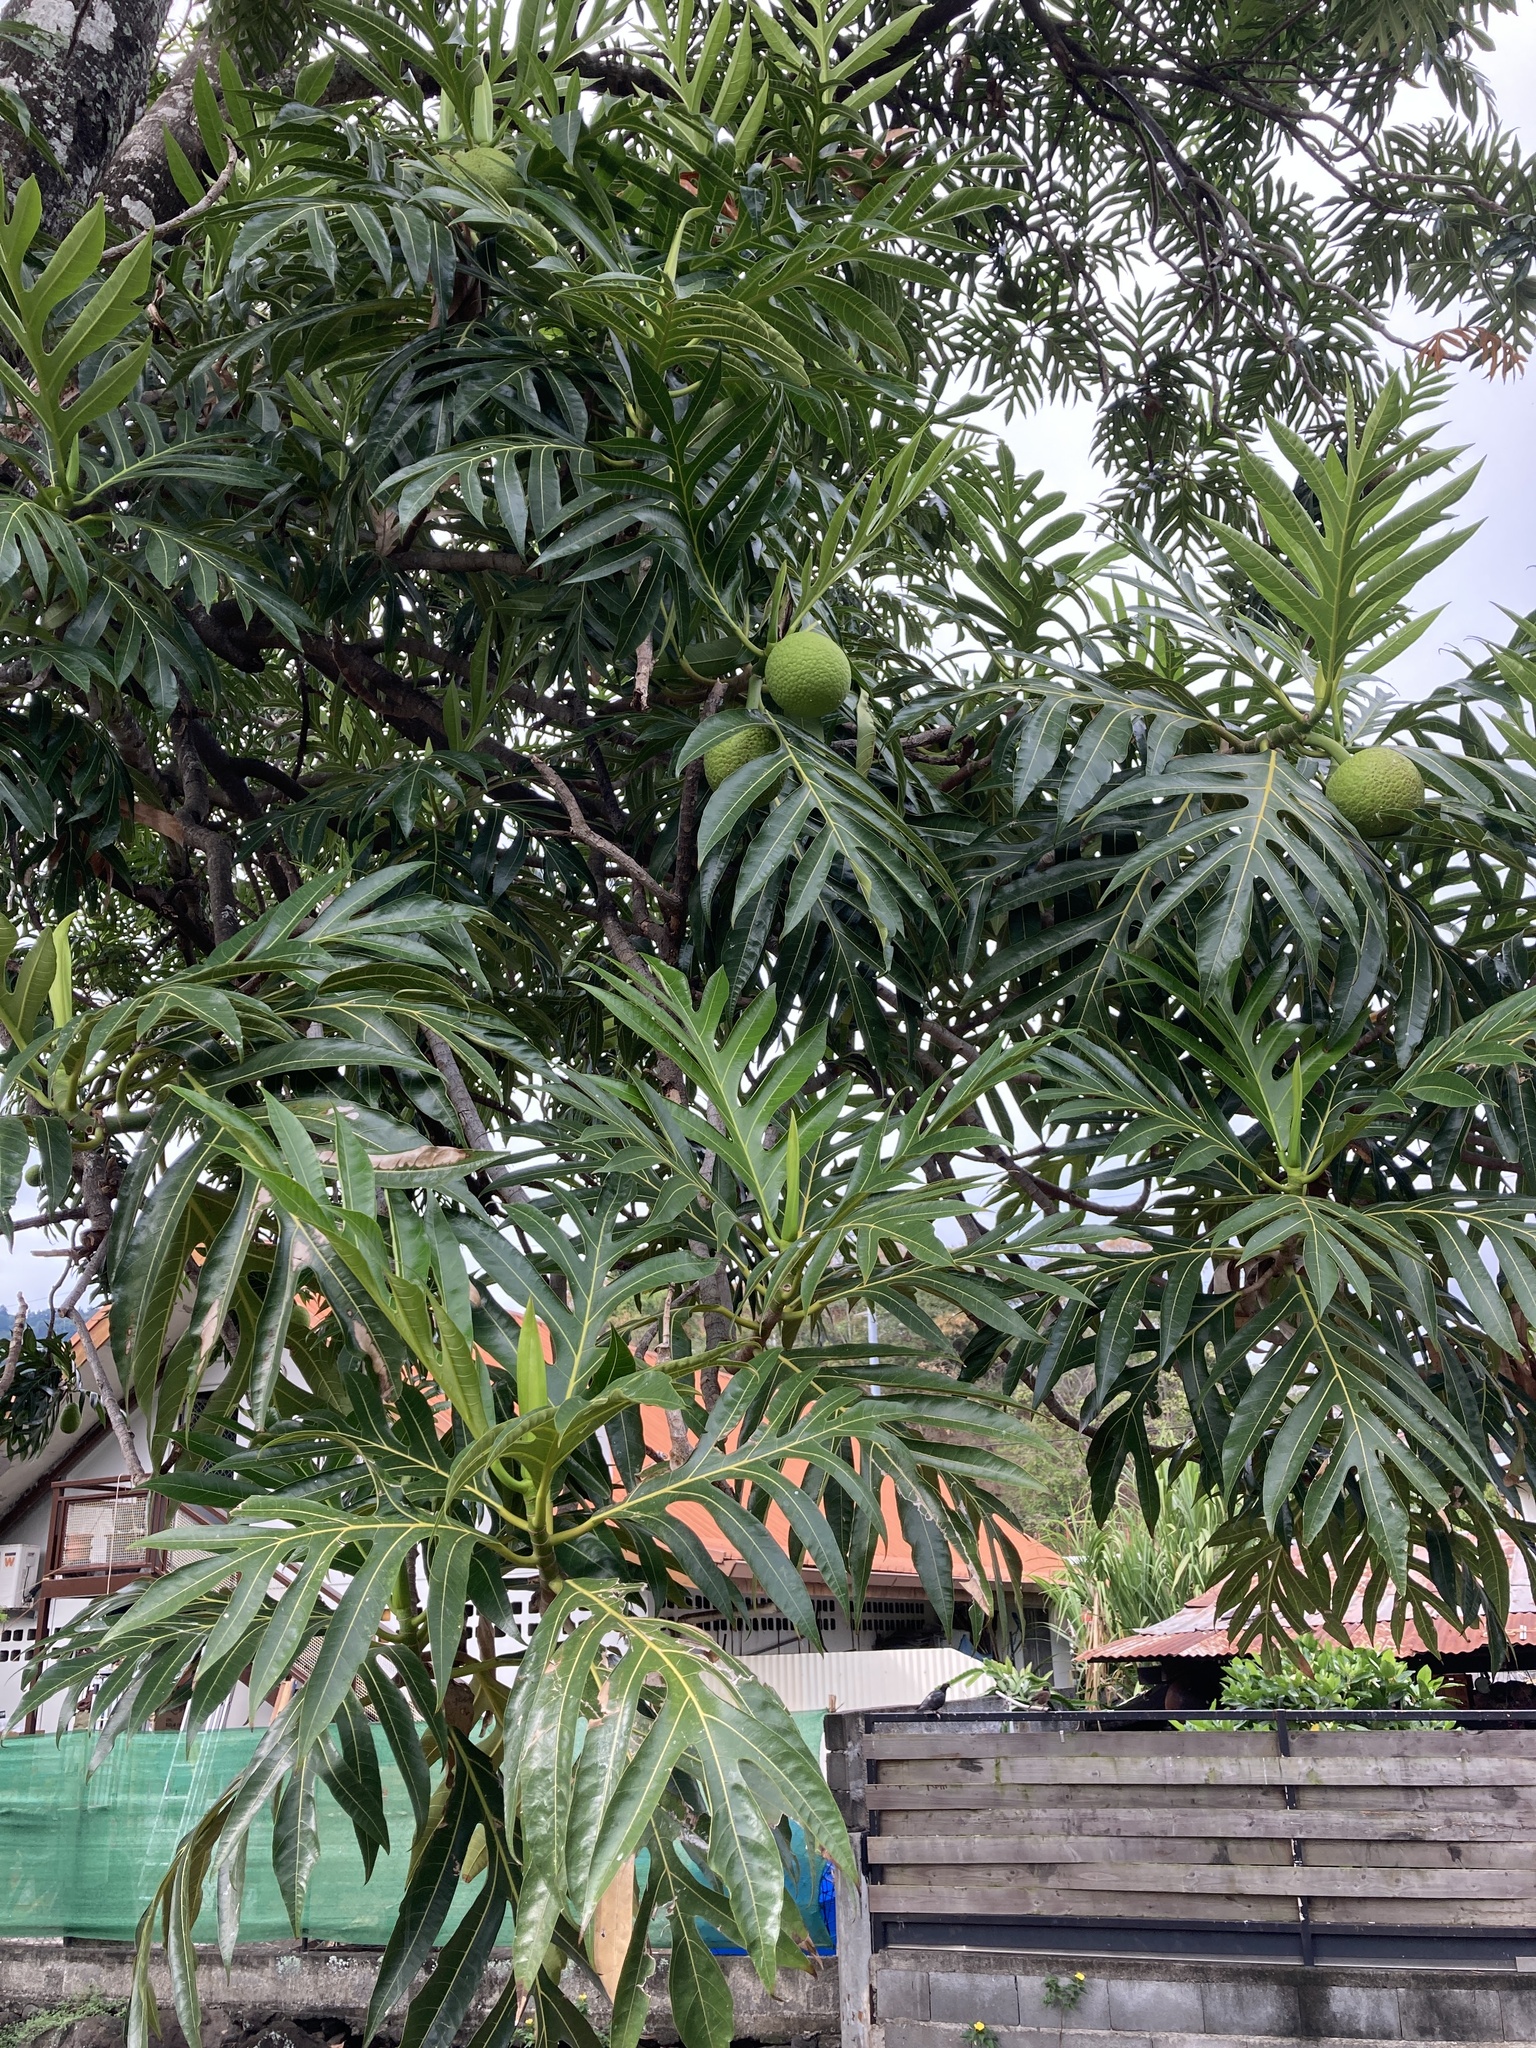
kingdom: Plantae
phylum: Tracheophyta
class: Magnoliopsida
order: Rosales
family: Moraceae
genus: Artocarpus
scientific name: Artocarpus altilis
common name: Breadfruit
